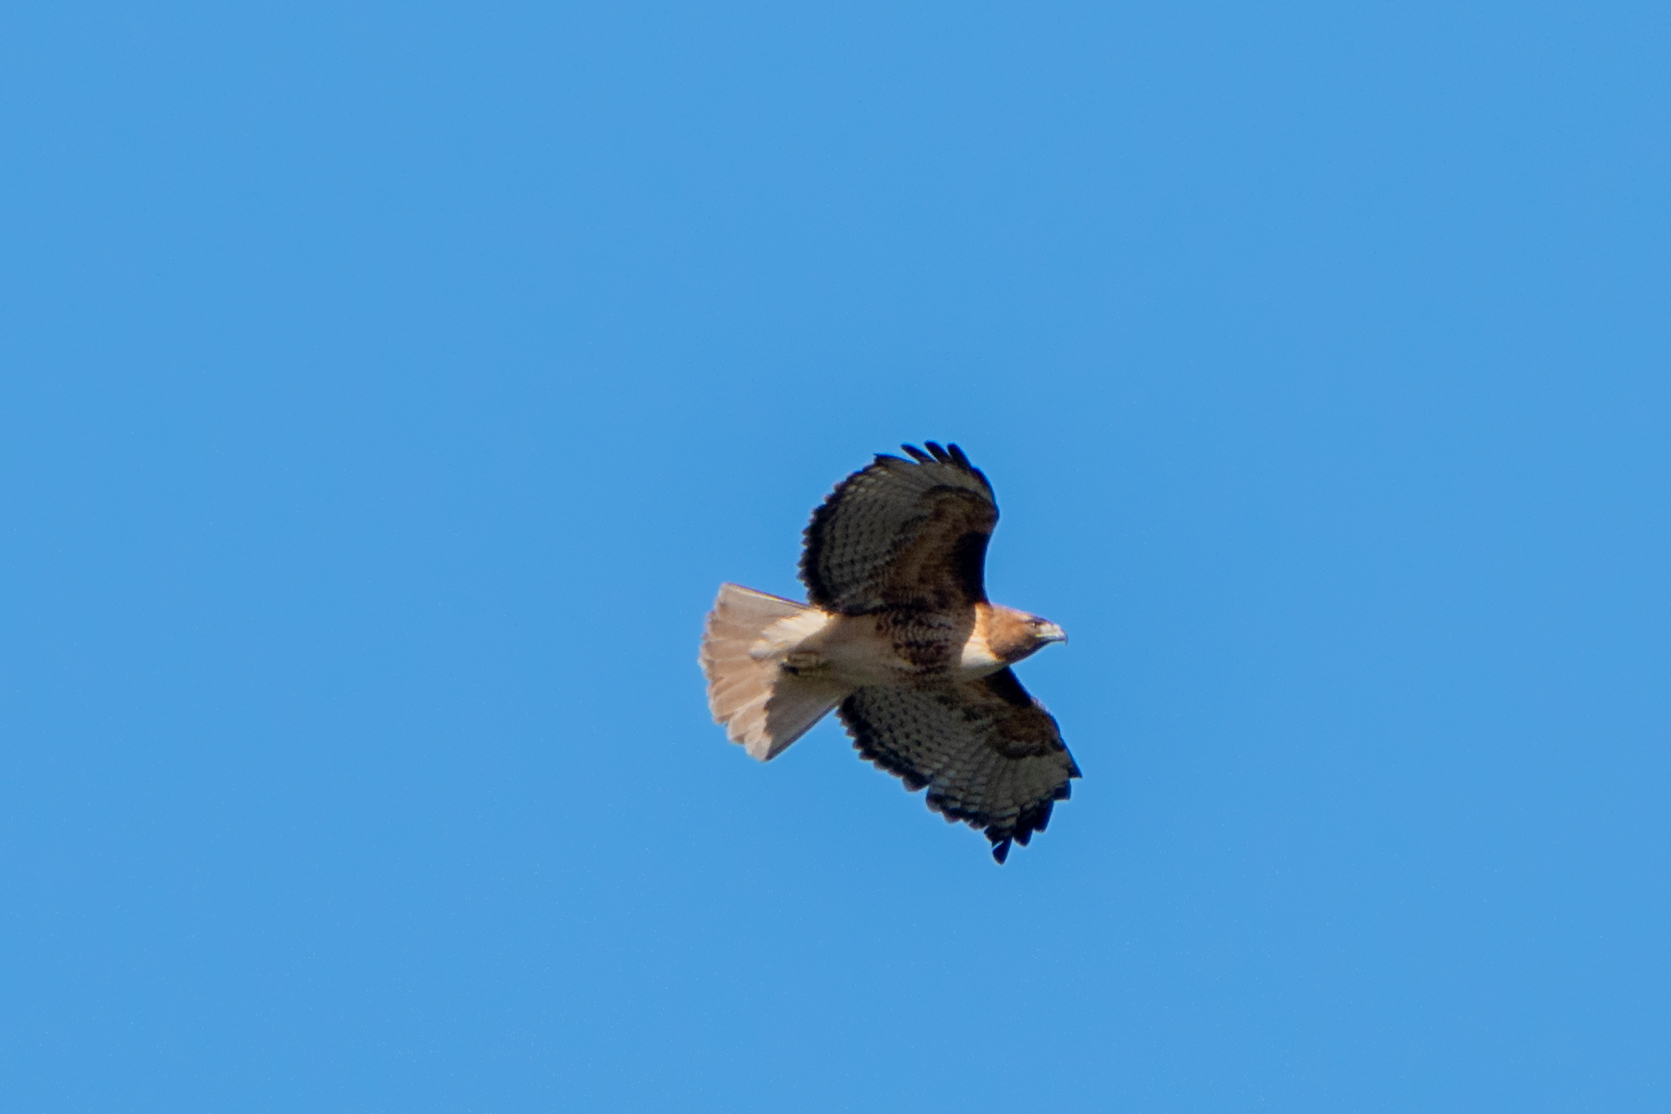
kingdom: Animalia
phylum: Chordata
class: Aves
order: Accipitriformes
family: Accipitridae
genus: Buteo
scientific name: Buteo jamaicensis
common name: Red-tailed hawk
